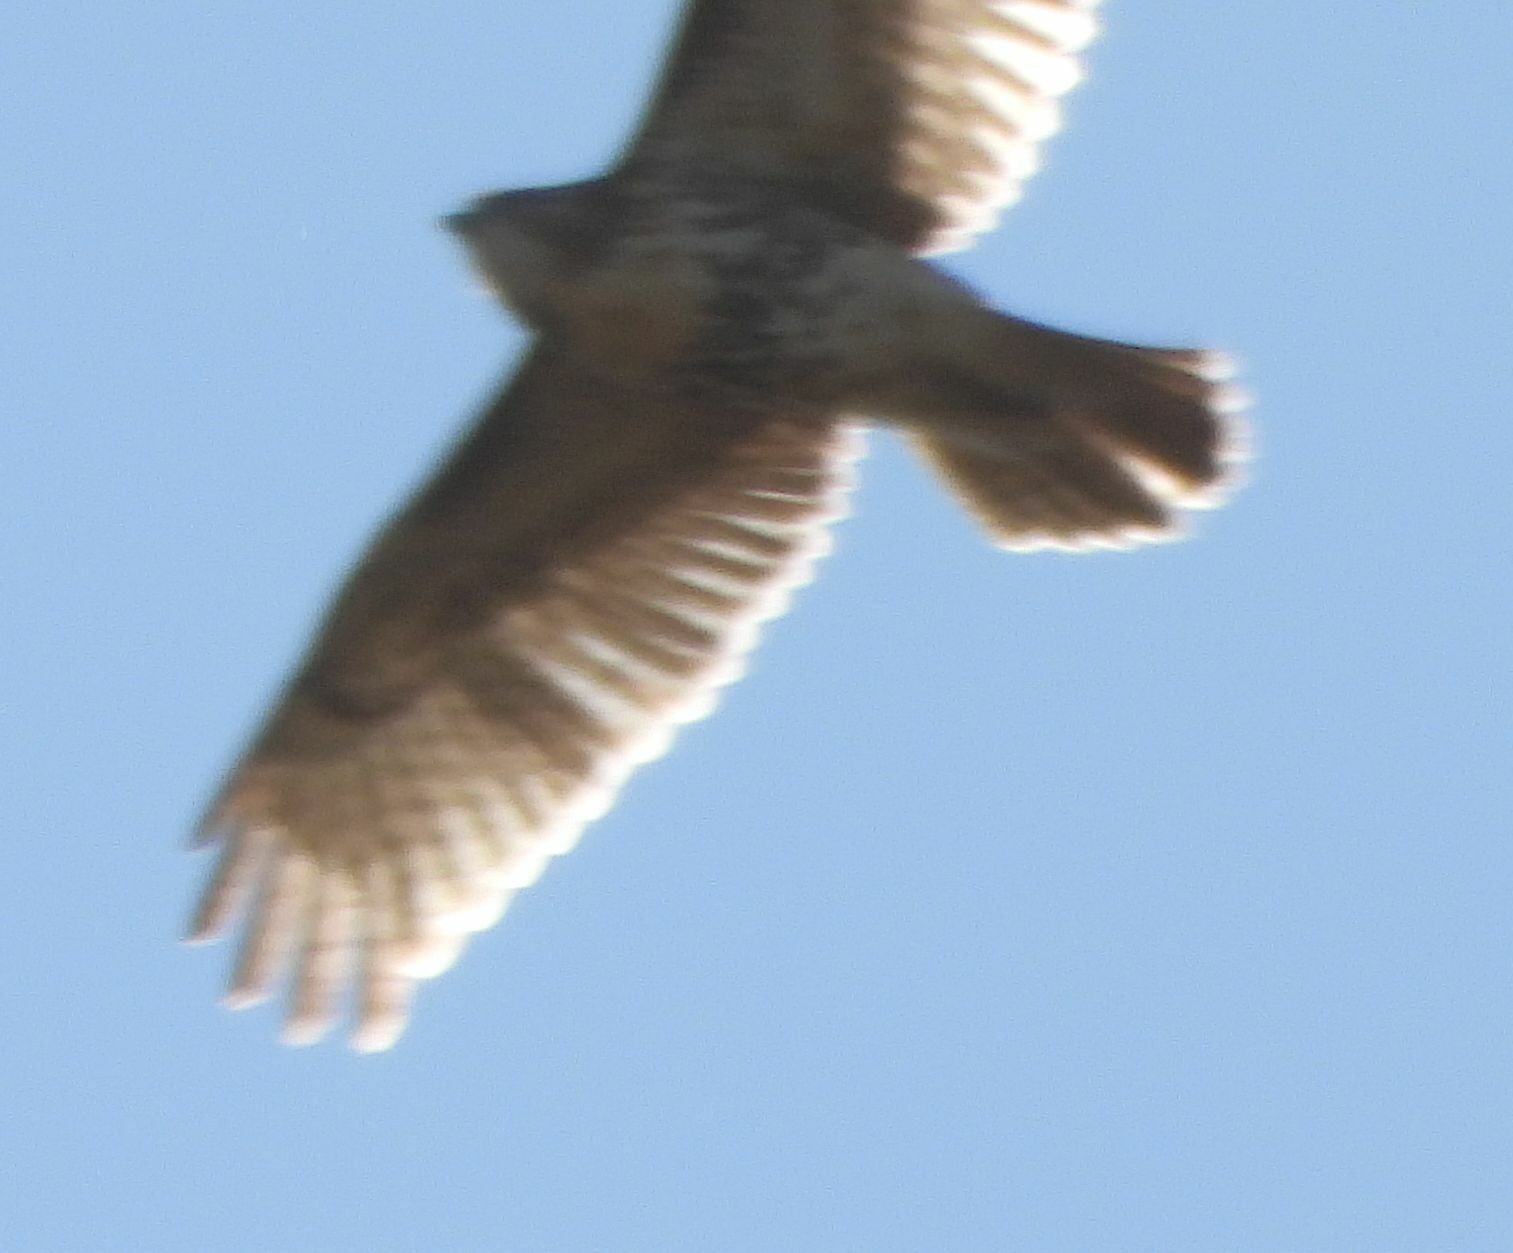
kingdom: Animalia
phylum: Chordata
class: Aves
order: Accipitriformes
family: Accipitridae
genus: Buteo
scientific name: Buteo jamaicensis
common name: Red-tailed hawk
